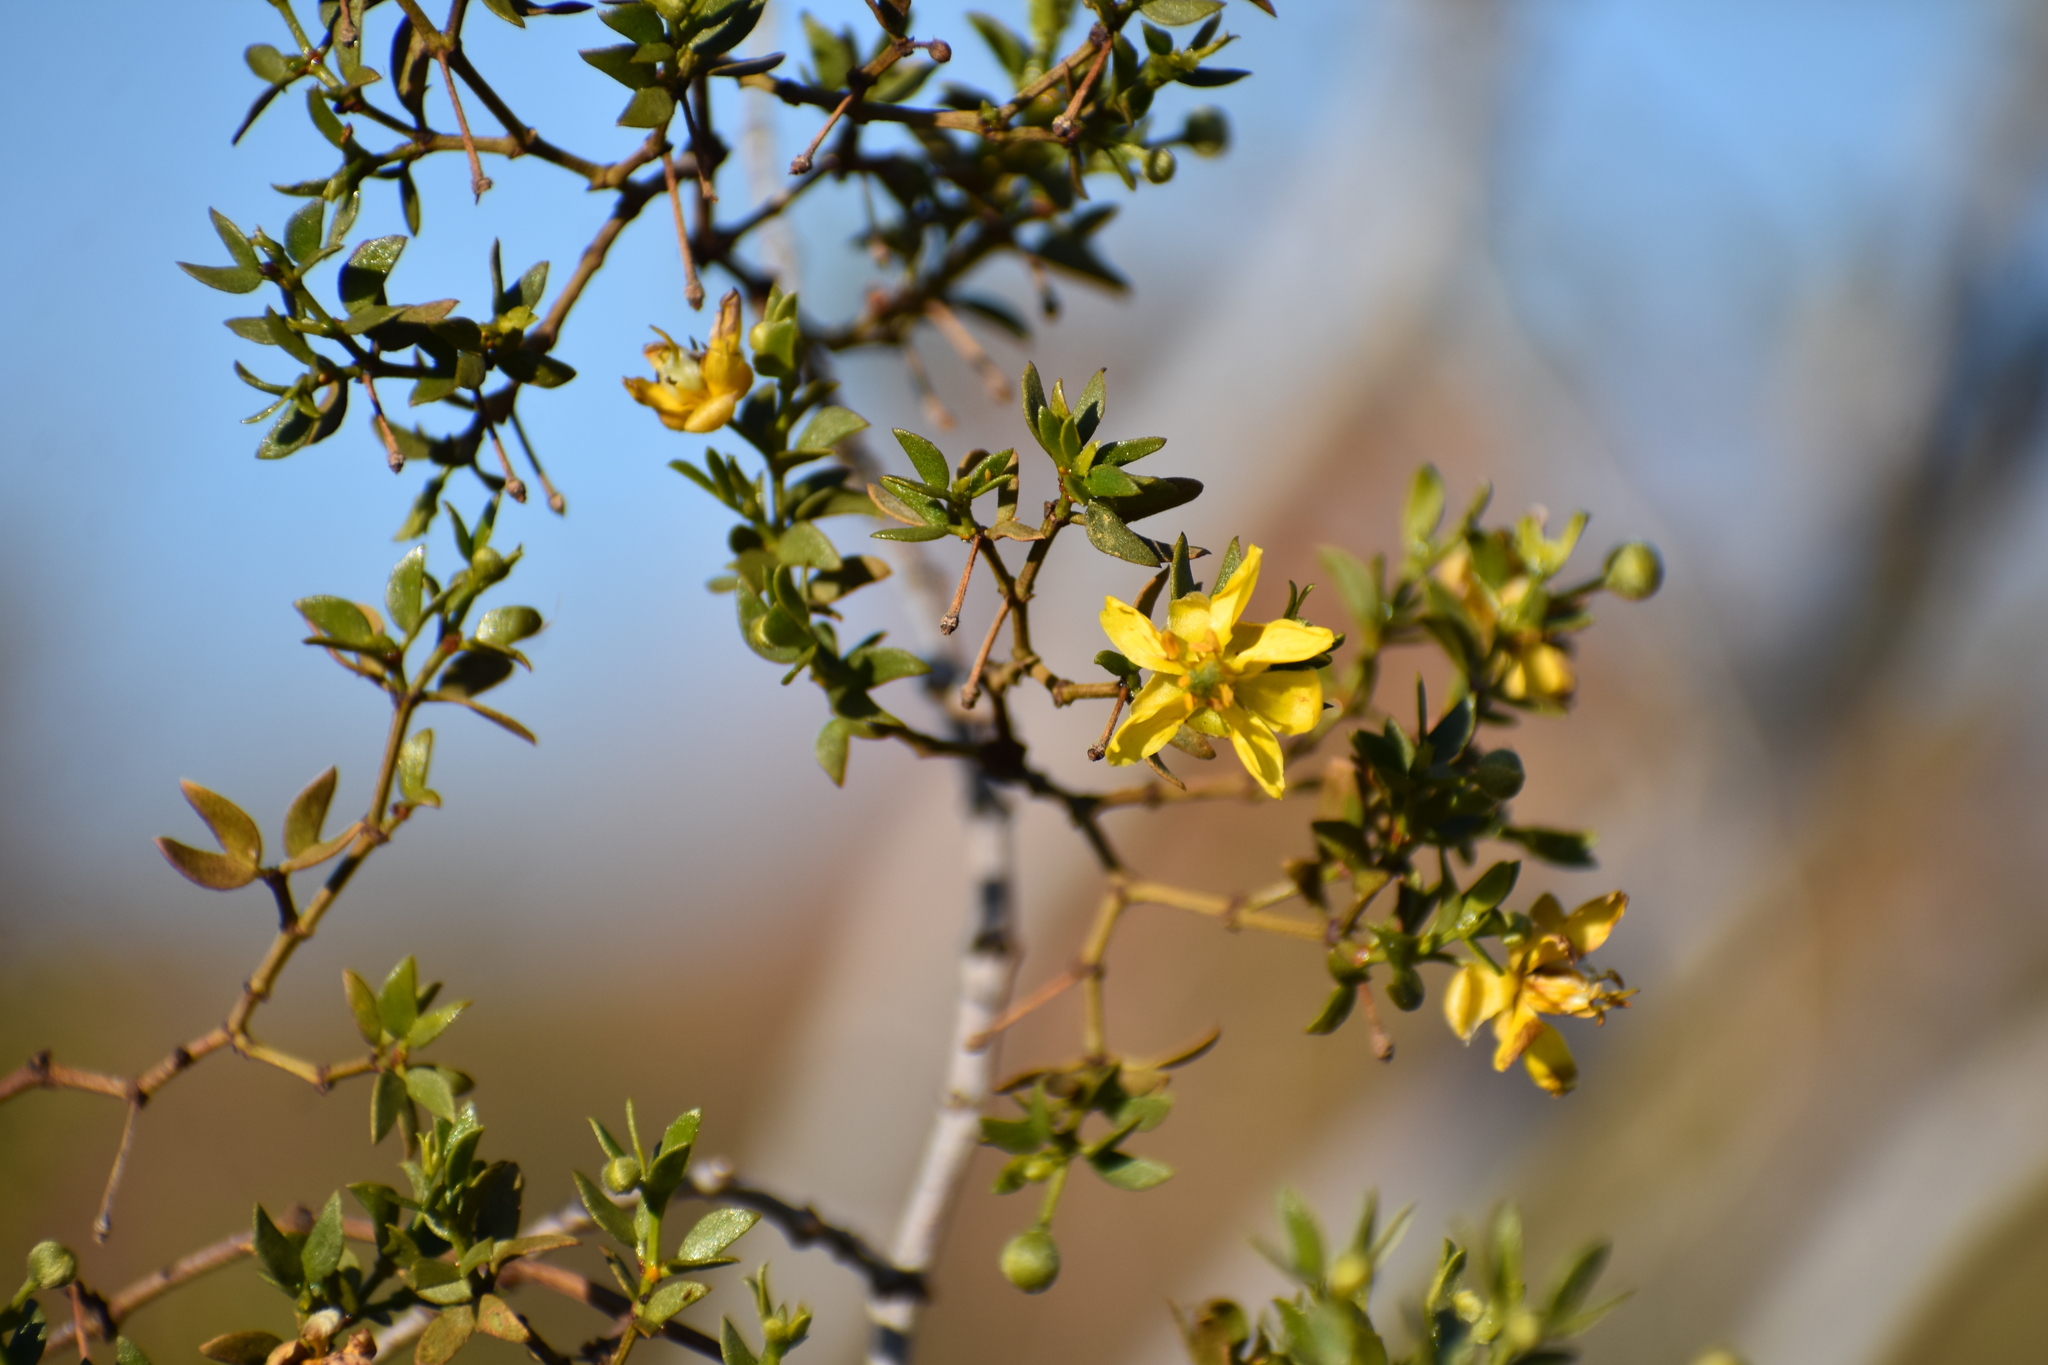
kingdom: Plantae
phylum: Tracheophyta
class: Magnoliopsida
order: Zygophyllales
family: Zygophyllaceae
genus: Larrea
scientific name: Larrea tridentata
